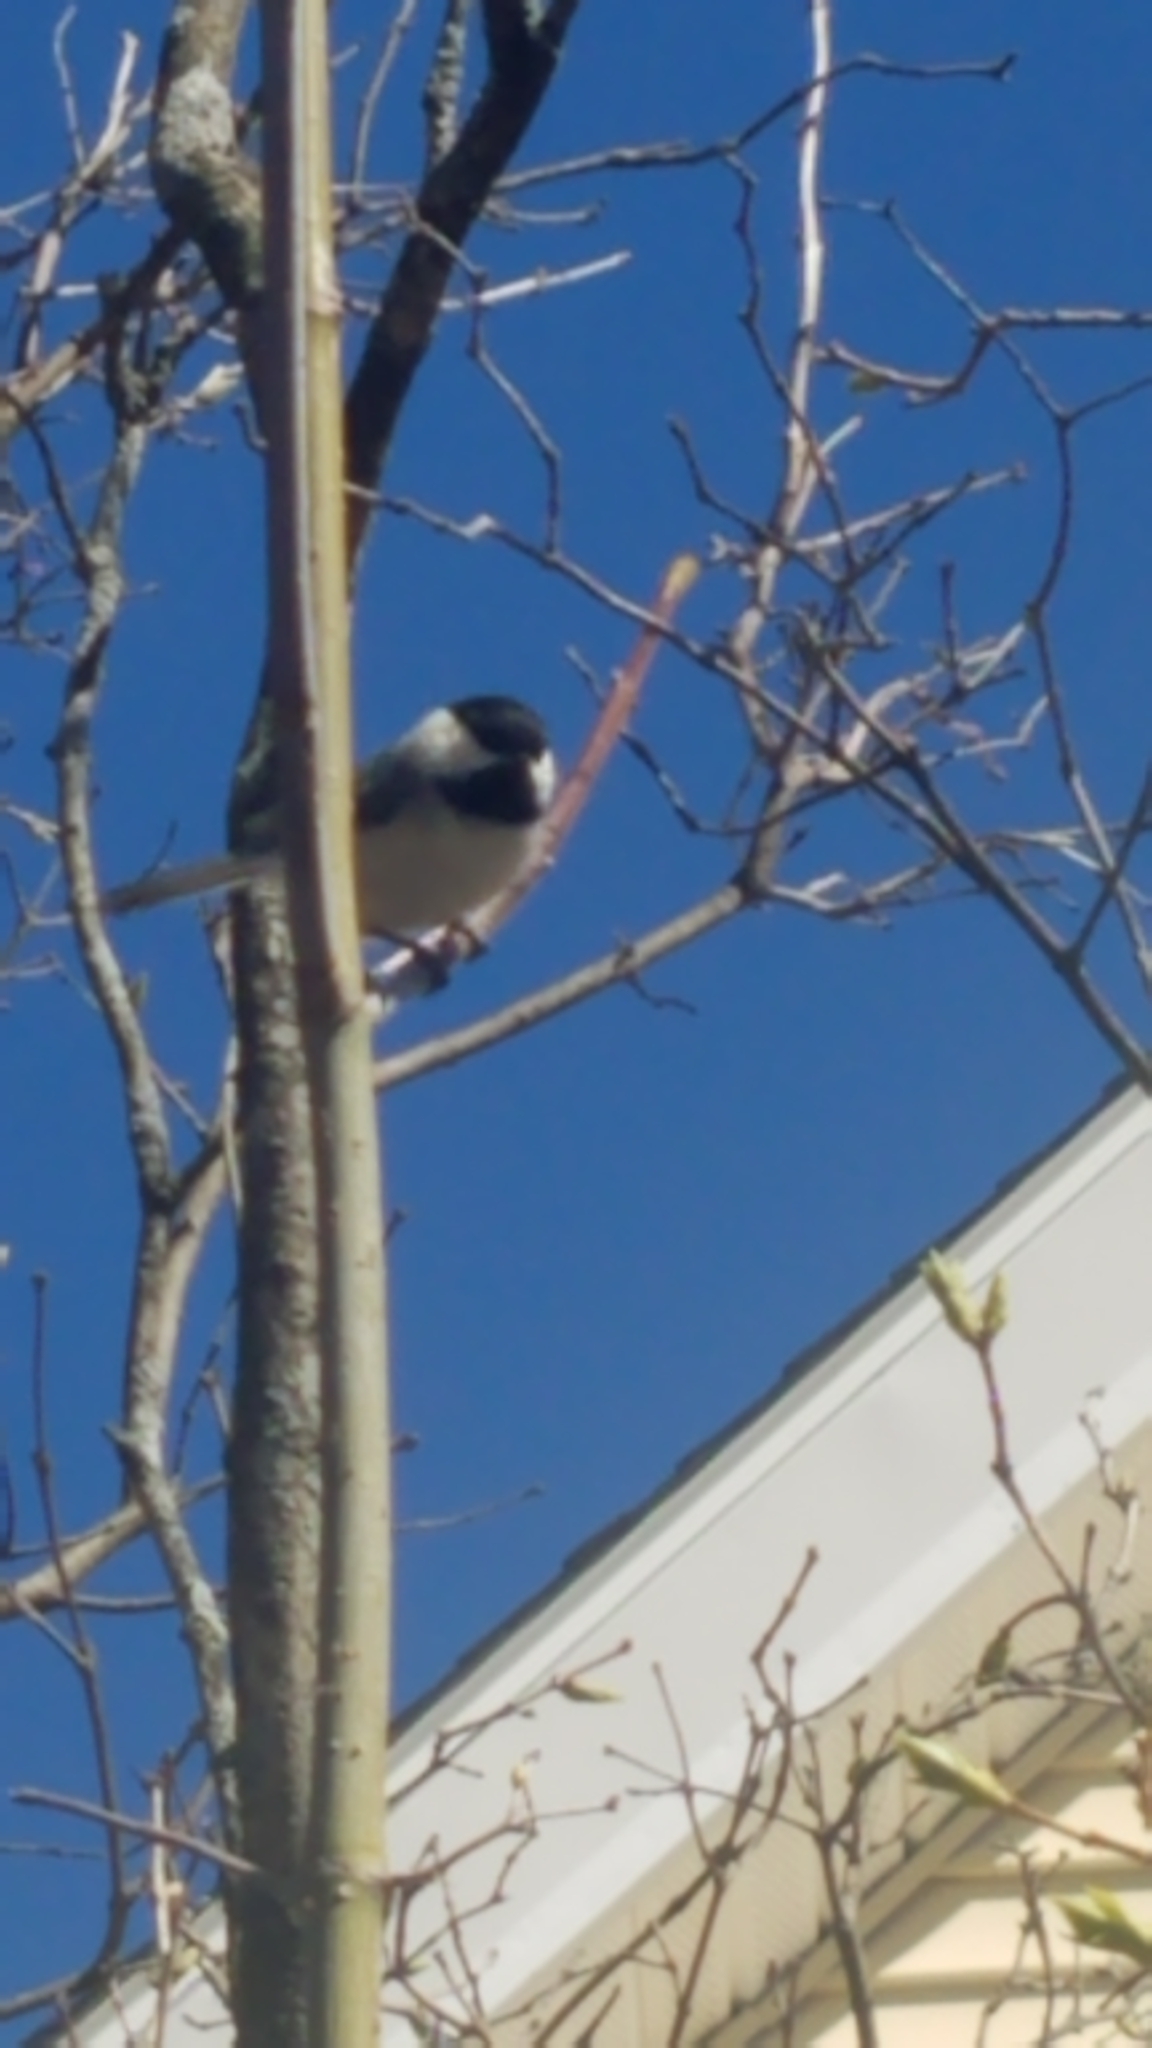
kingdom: Animalia
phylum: Chordata
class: Aves
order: Passeriformes
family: Paridae
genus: Poecile
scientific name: Poecile atricapillus
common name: Black-capped chickadee
